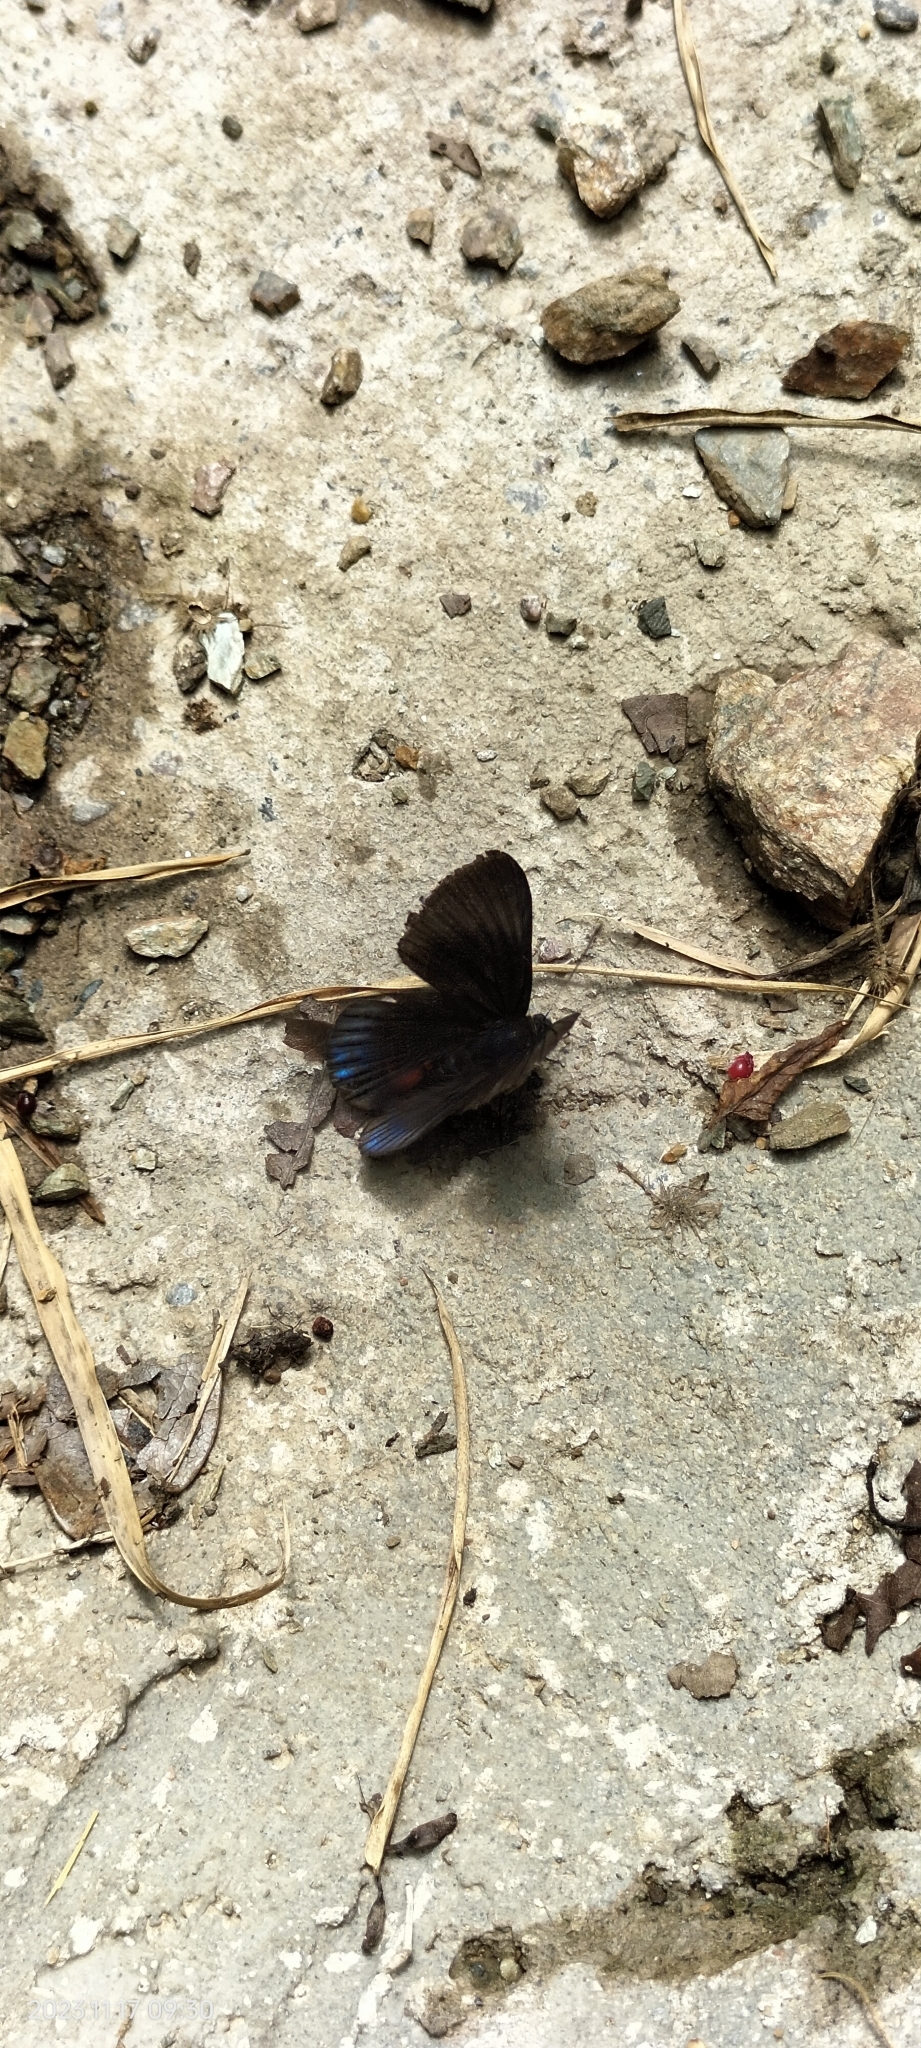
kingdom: Animalia
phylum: Arthropoda
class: Insecta
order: Lepidoptera
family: Lycaenidae
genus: Necyria
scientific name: Necyria bellona
